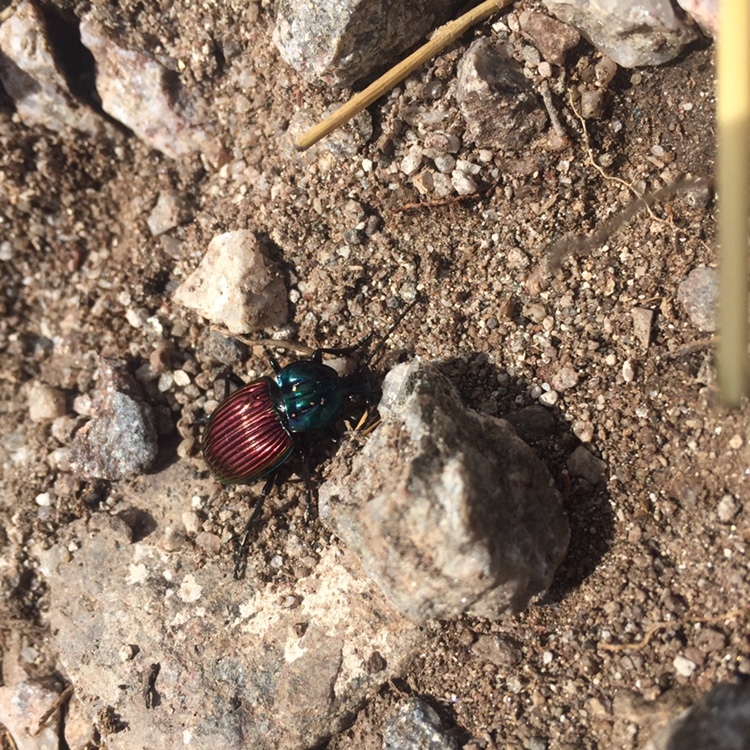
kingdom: Animalia
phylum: Arthropoda
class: Insecta
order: Coleoptera
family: Carabidae
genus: Brachygnathus
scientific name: Brachygnathus festivus
